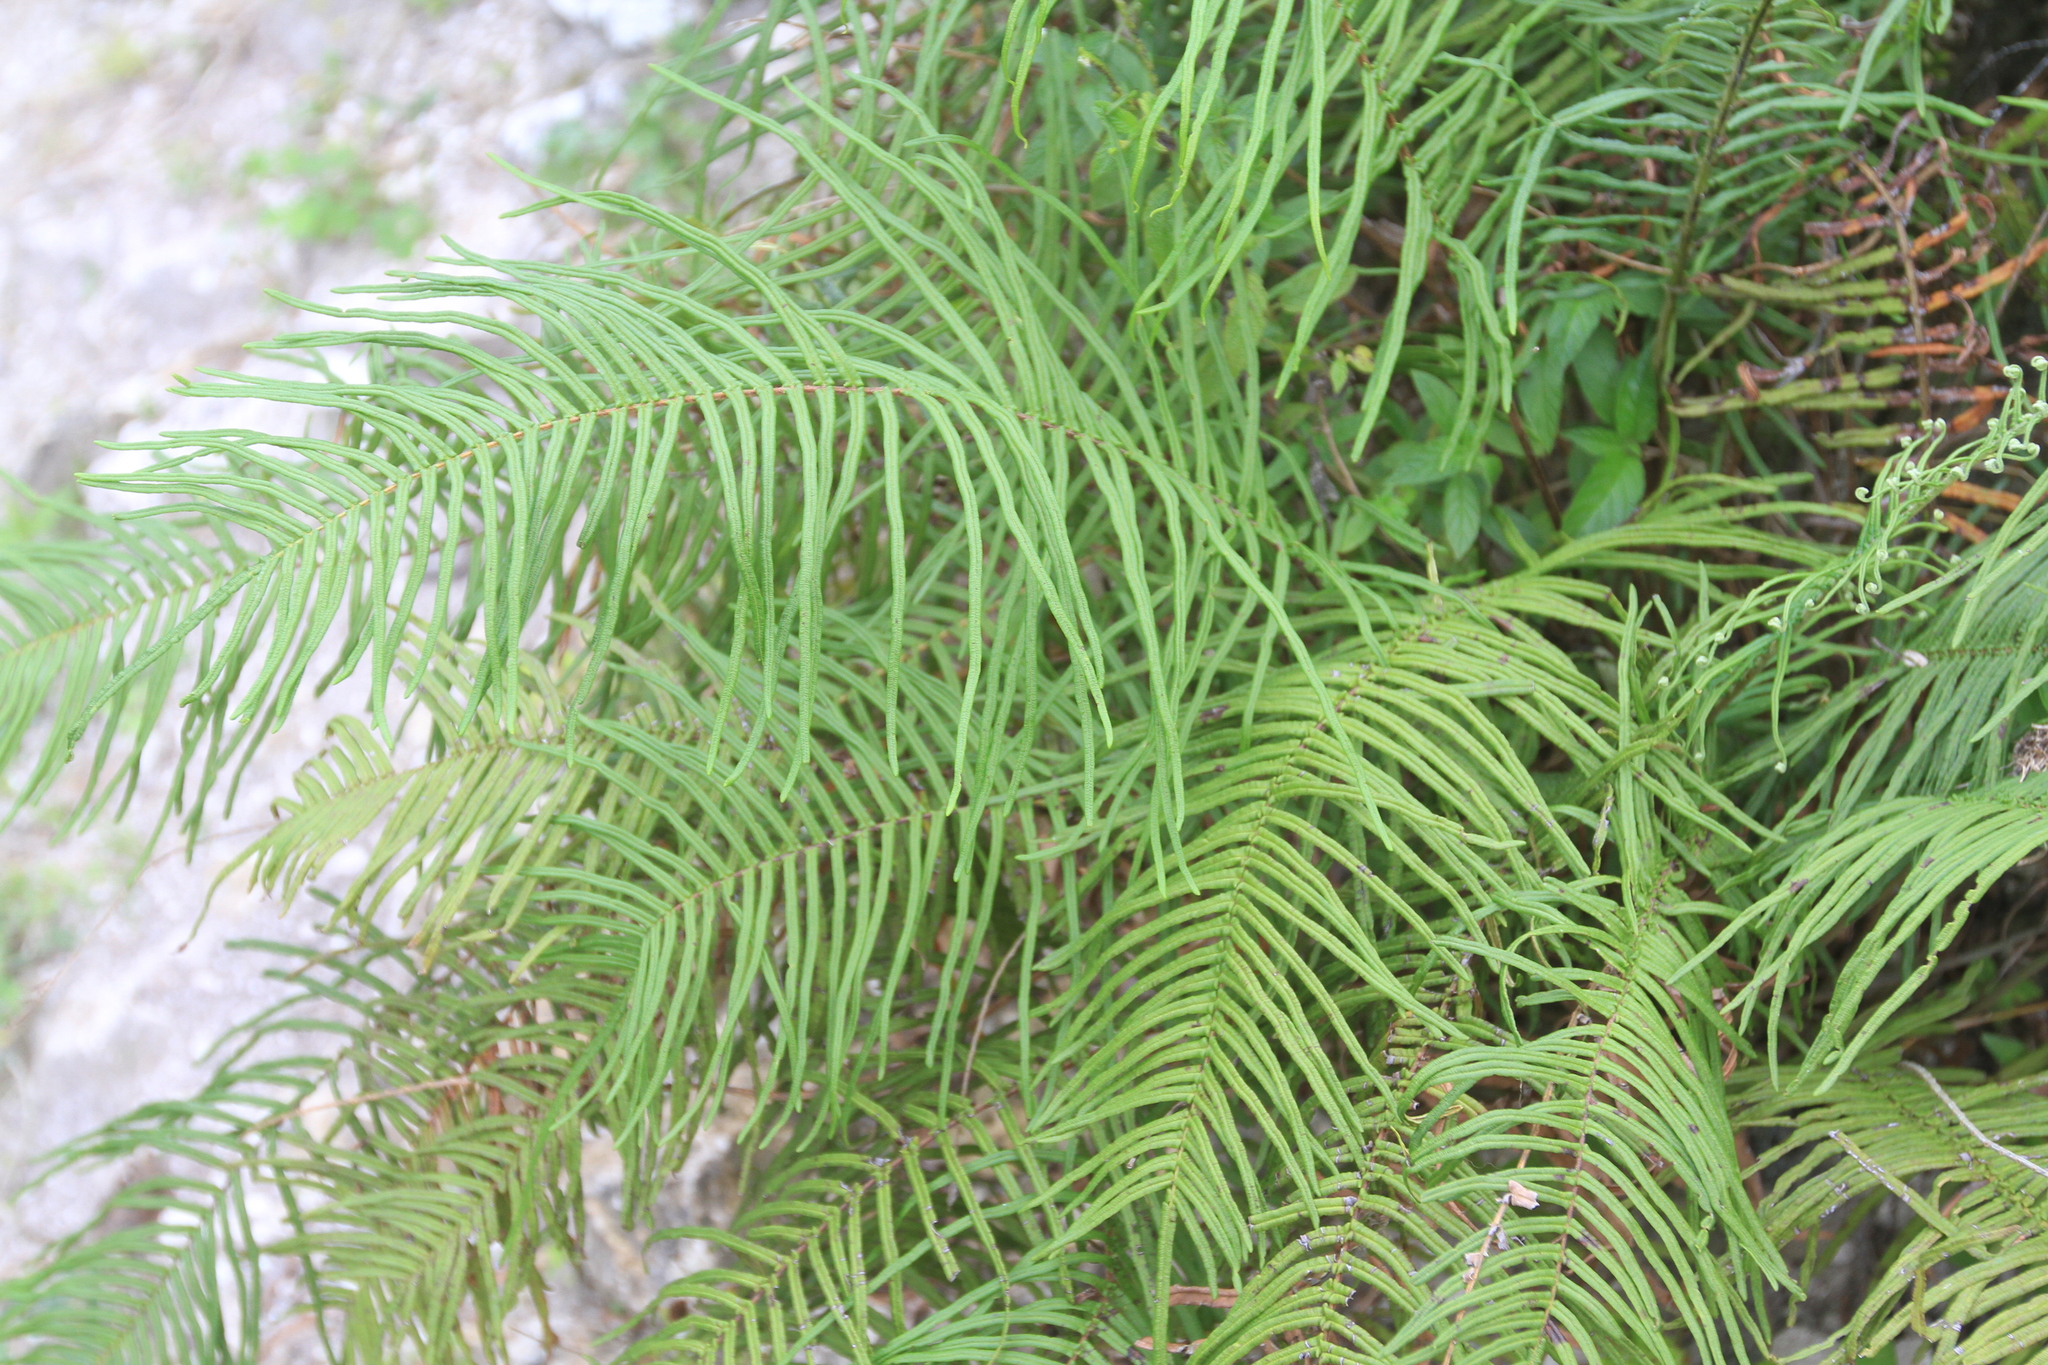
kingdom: Plantae
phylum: Tracheophyta
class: Polypodiopsida
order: Polypodiales
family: Pteridaceae
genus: Pteris
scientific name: Pteris vittata
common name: Ladder brake
